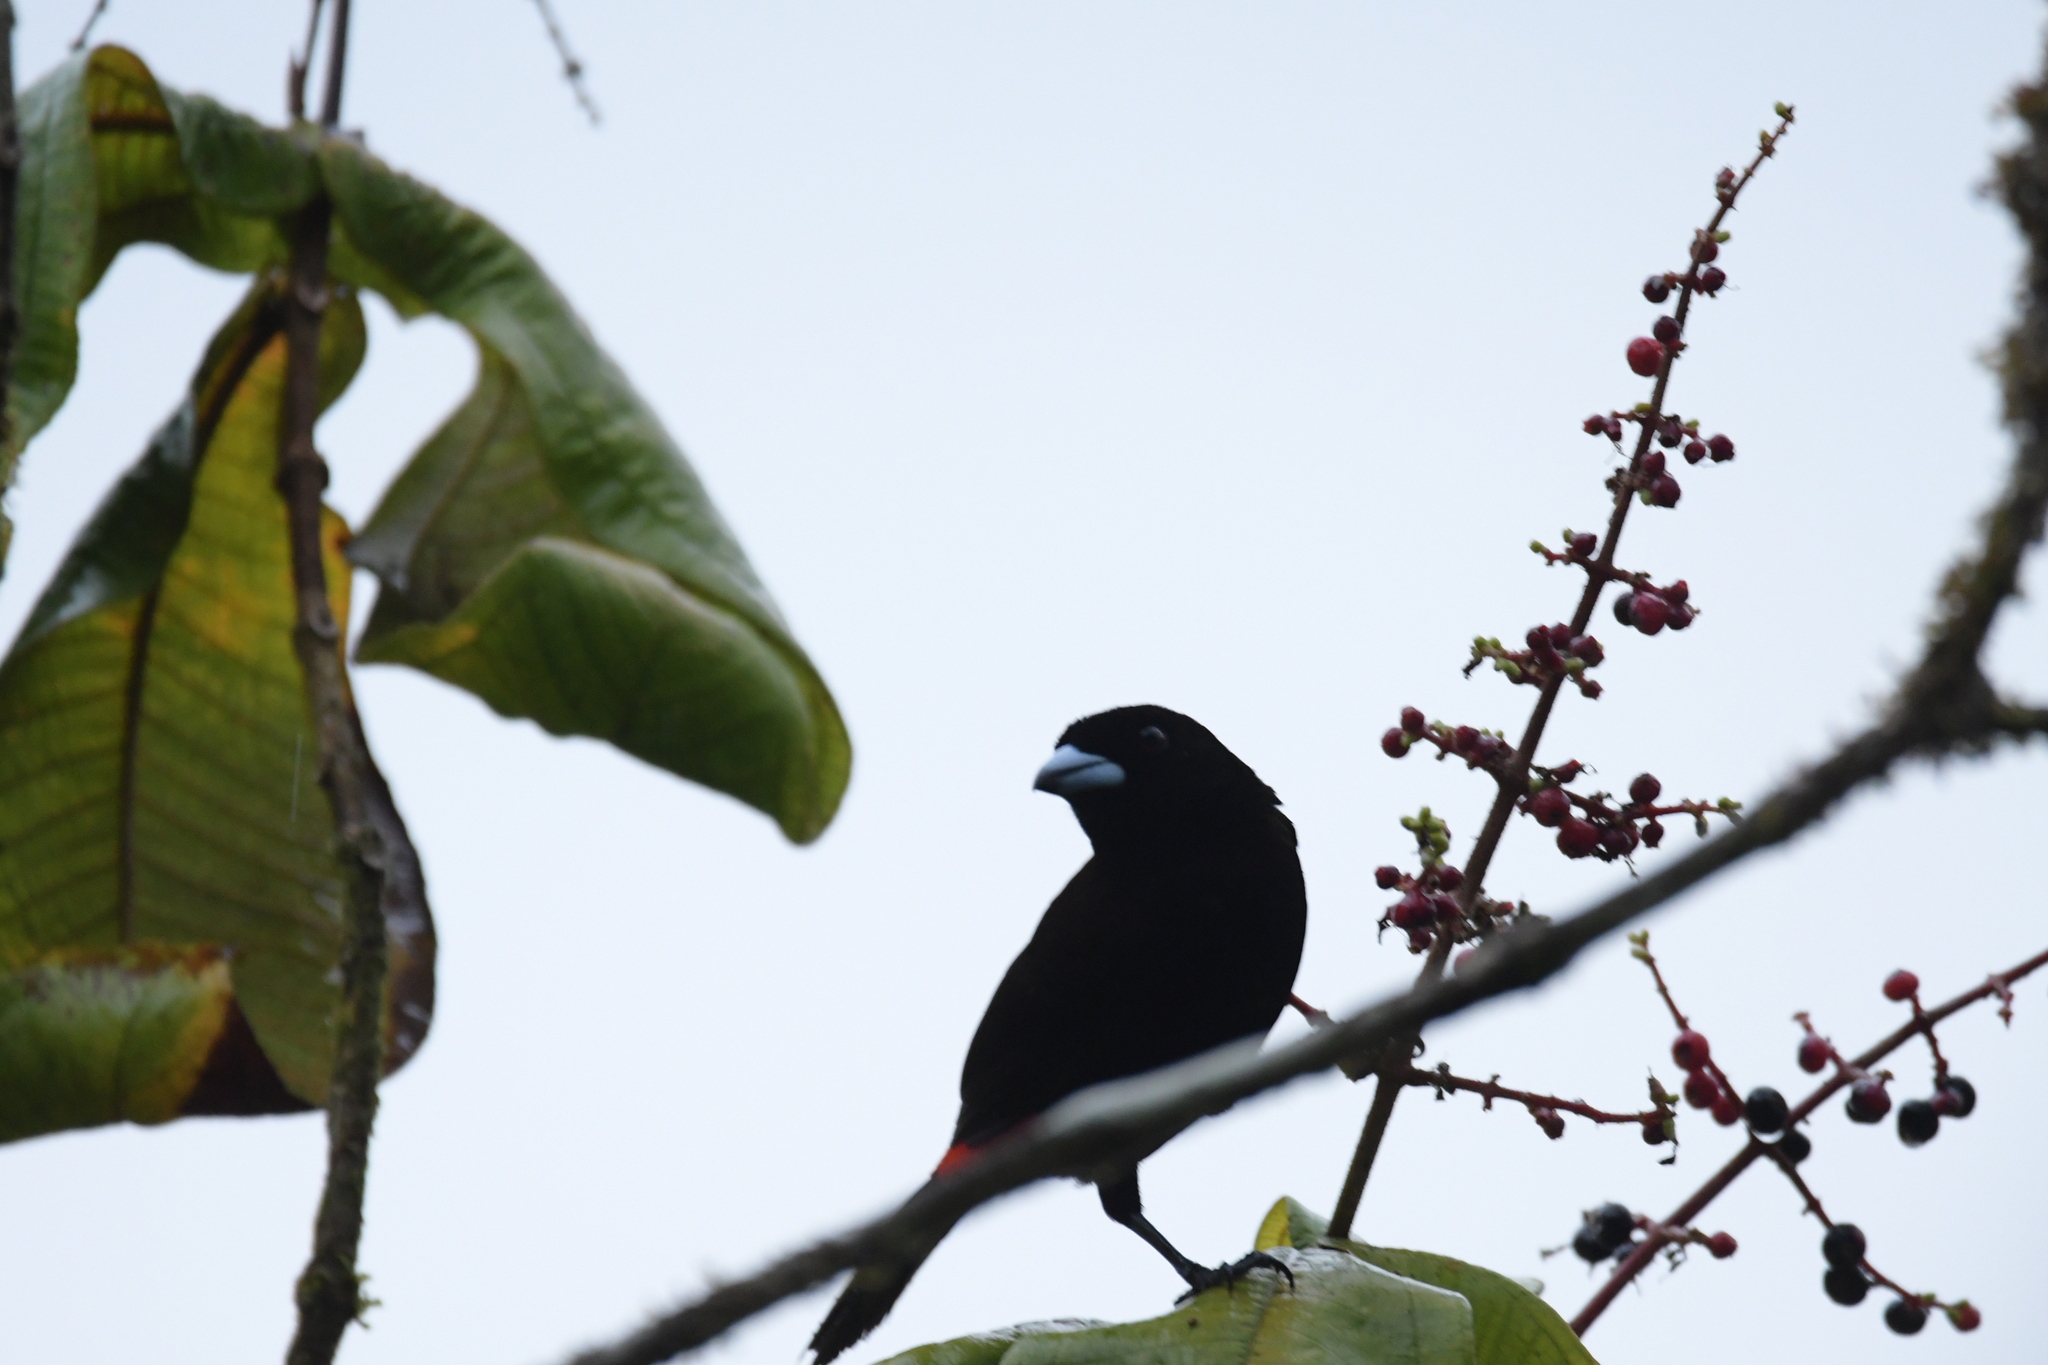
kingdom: Animalia
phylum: Chordata
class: Aves
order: Passeriformes
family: Thraupidae
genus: Ramphocelus
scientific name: Ramphocelus passerinii
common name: Passerini's tanager
